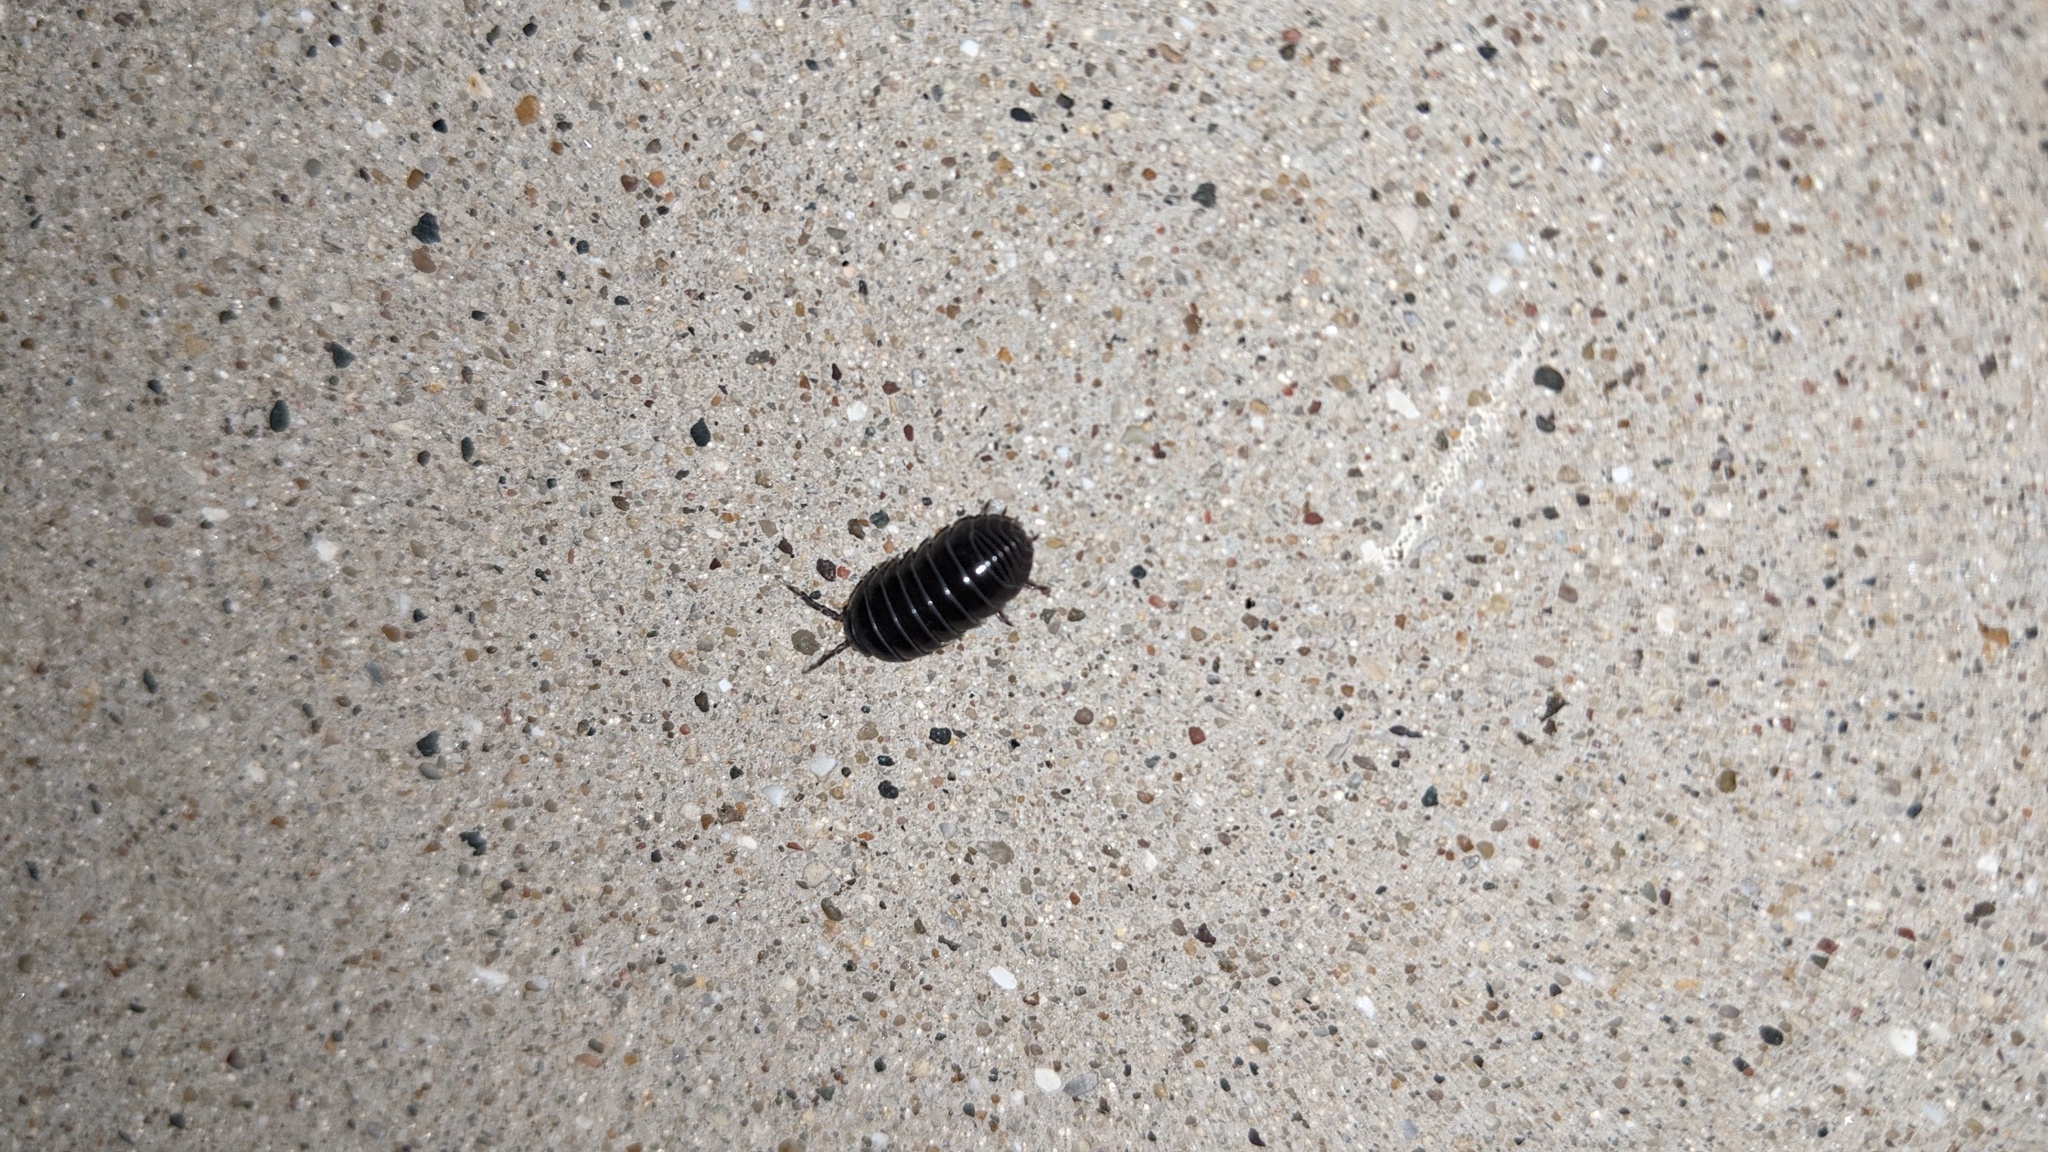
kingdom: Animalia
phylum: Arthropoda
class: Malacostraca
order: Isopoda
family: Armadillidiidae
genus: Armadillidium
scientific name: Armadillidium vulgare
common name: Common pill woodlouse
